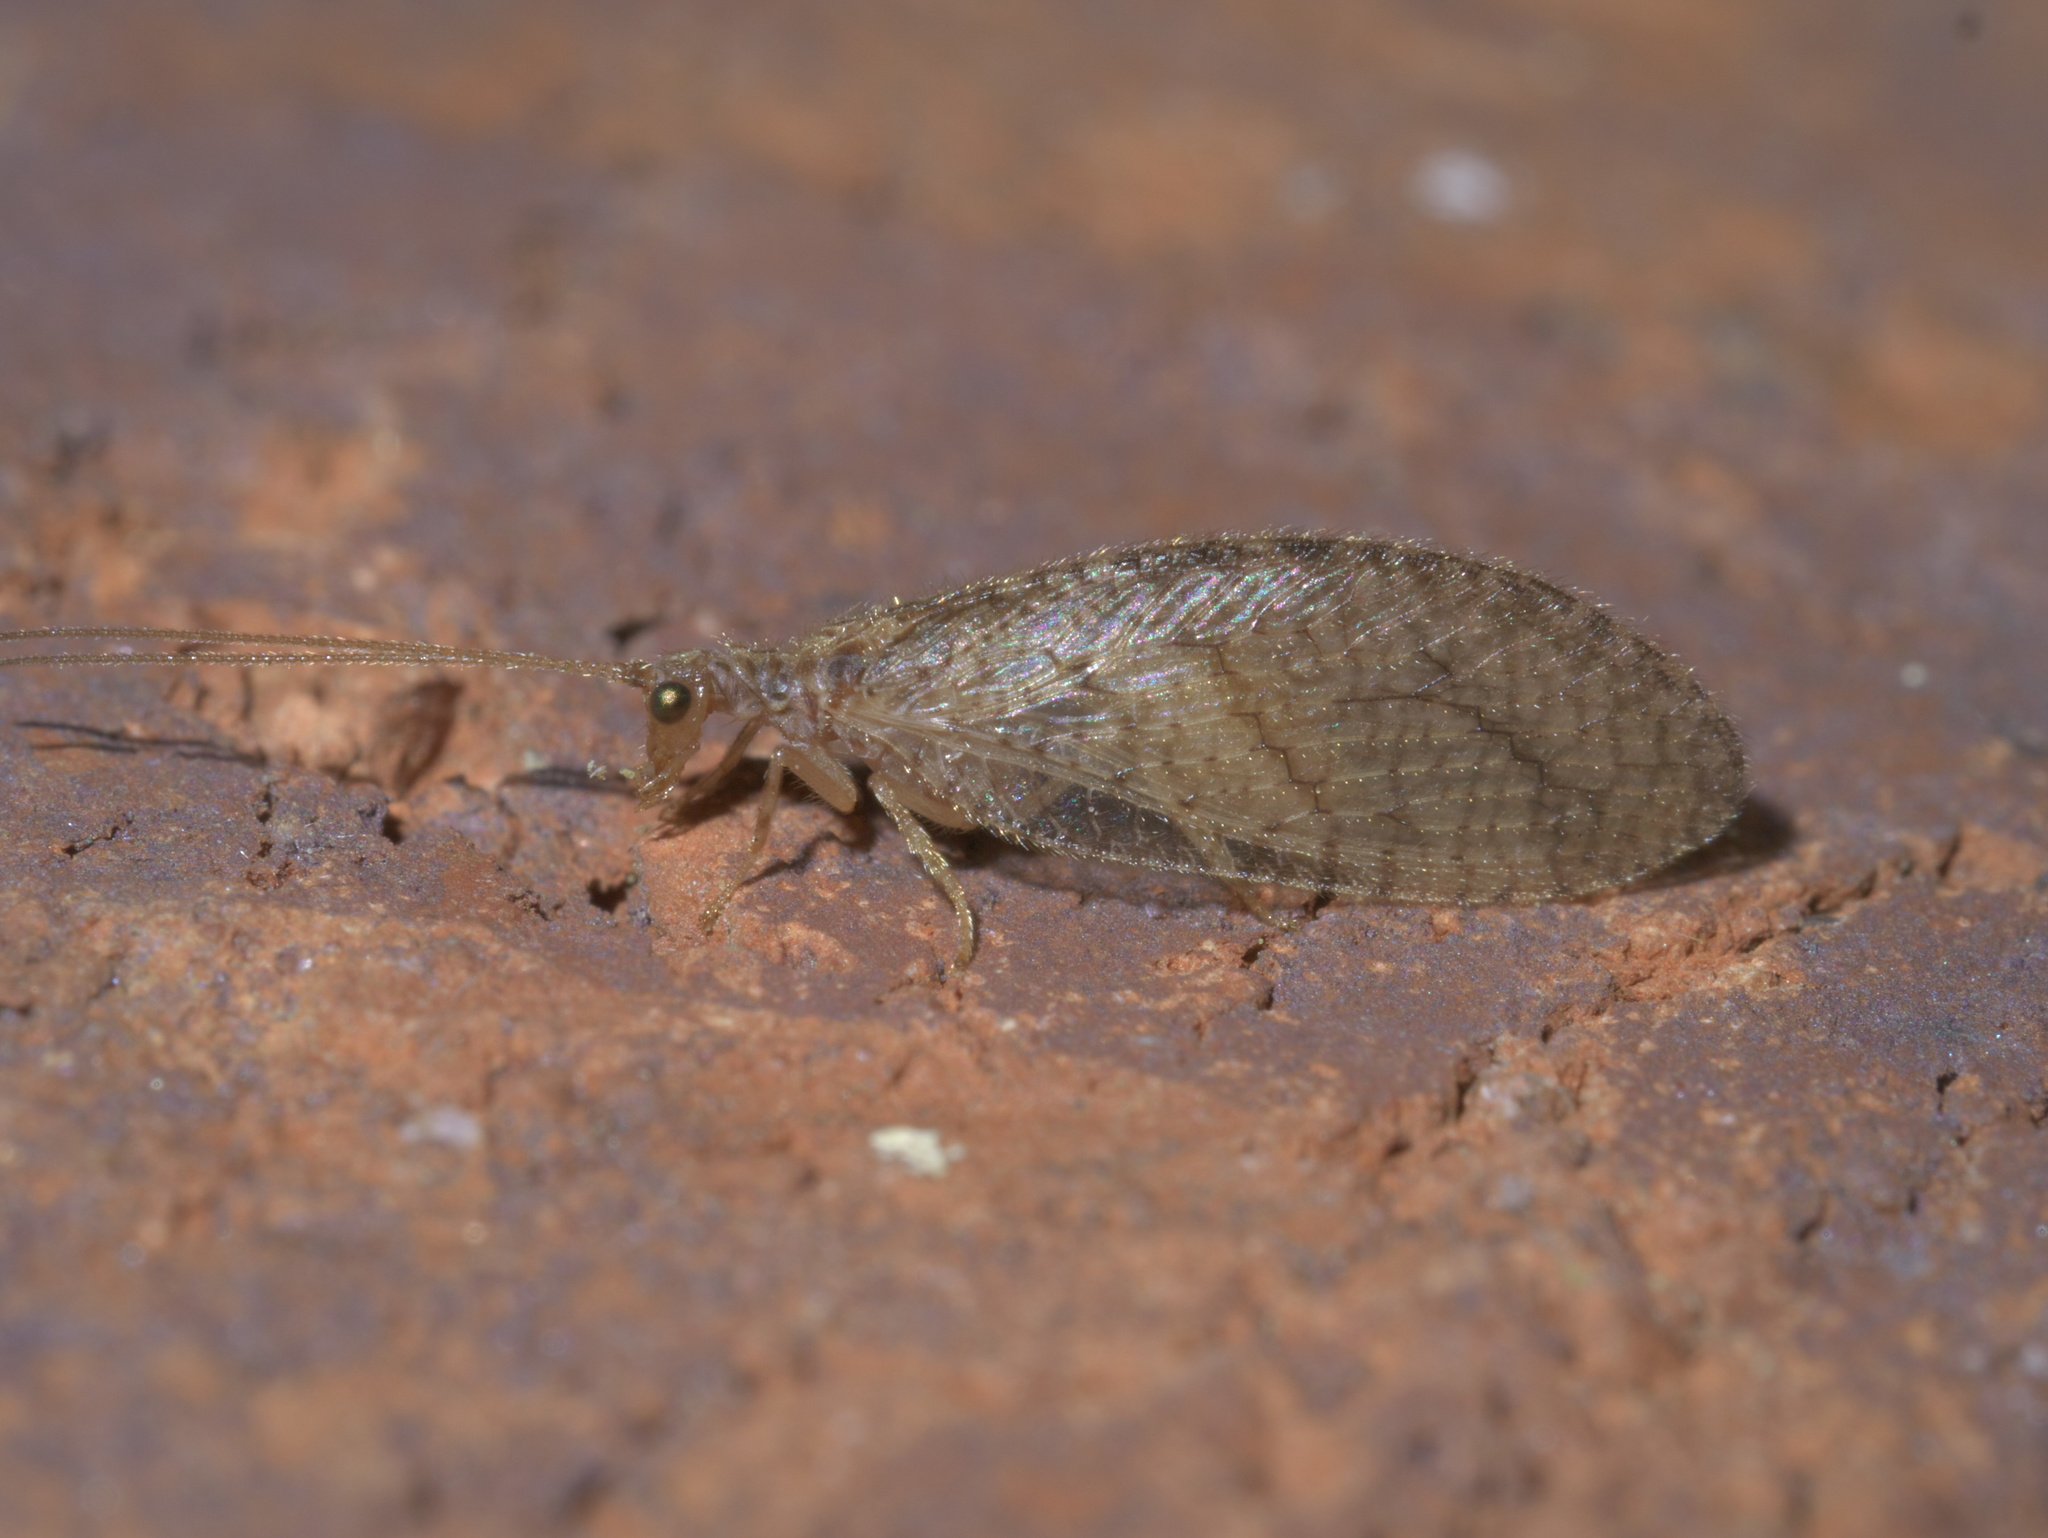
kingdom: Animalia
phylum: Arthropoda
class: Insecta
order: Neuroptera
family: Hemerobiidae
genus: Micromus
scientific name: Micromus posticus
